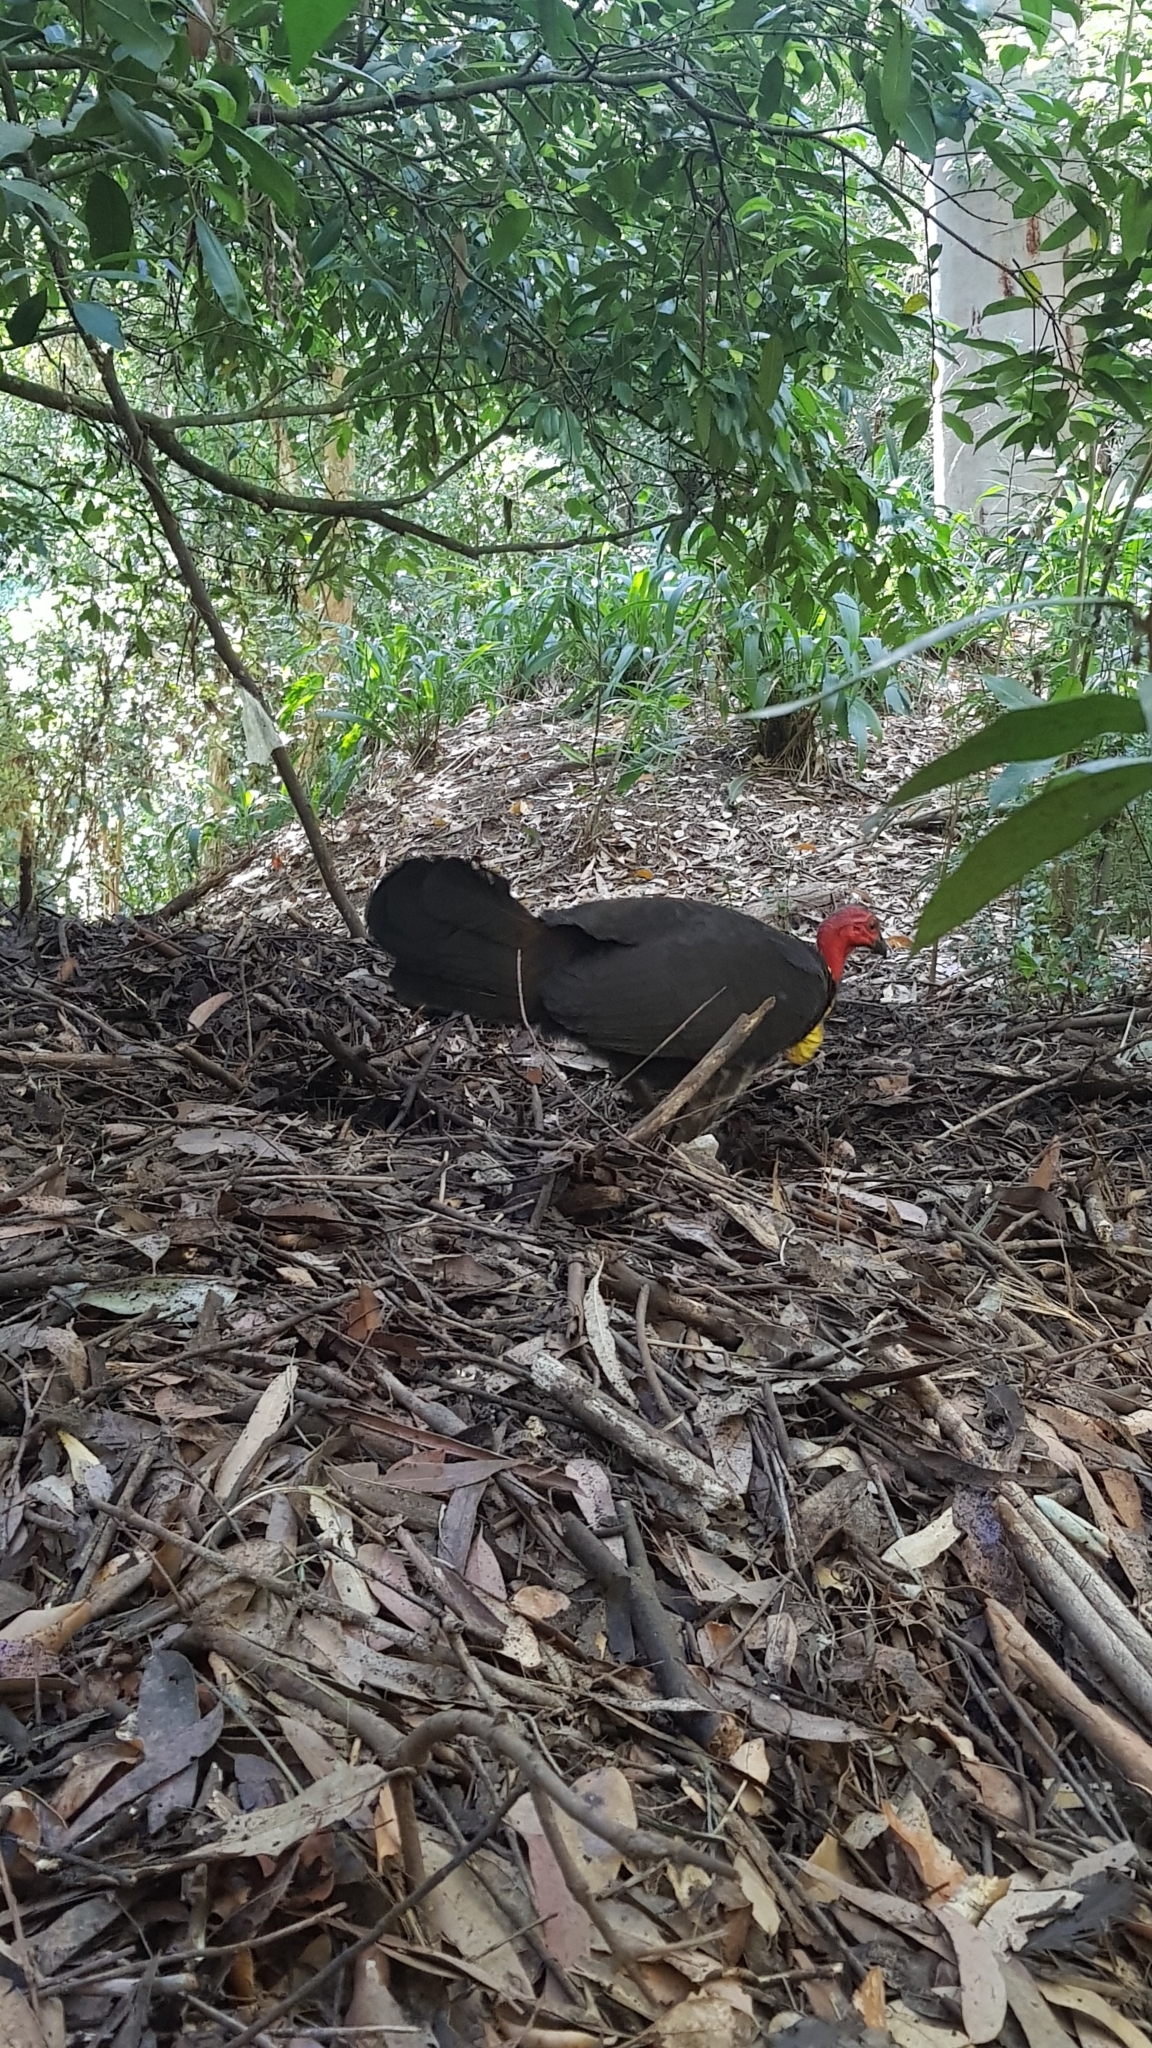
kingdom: Animalia
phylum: Chordata
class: Aves
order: Galliformes
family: Megapodiidae
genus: Alectura
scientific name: Alectura lathami
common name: Australian brushturkey
